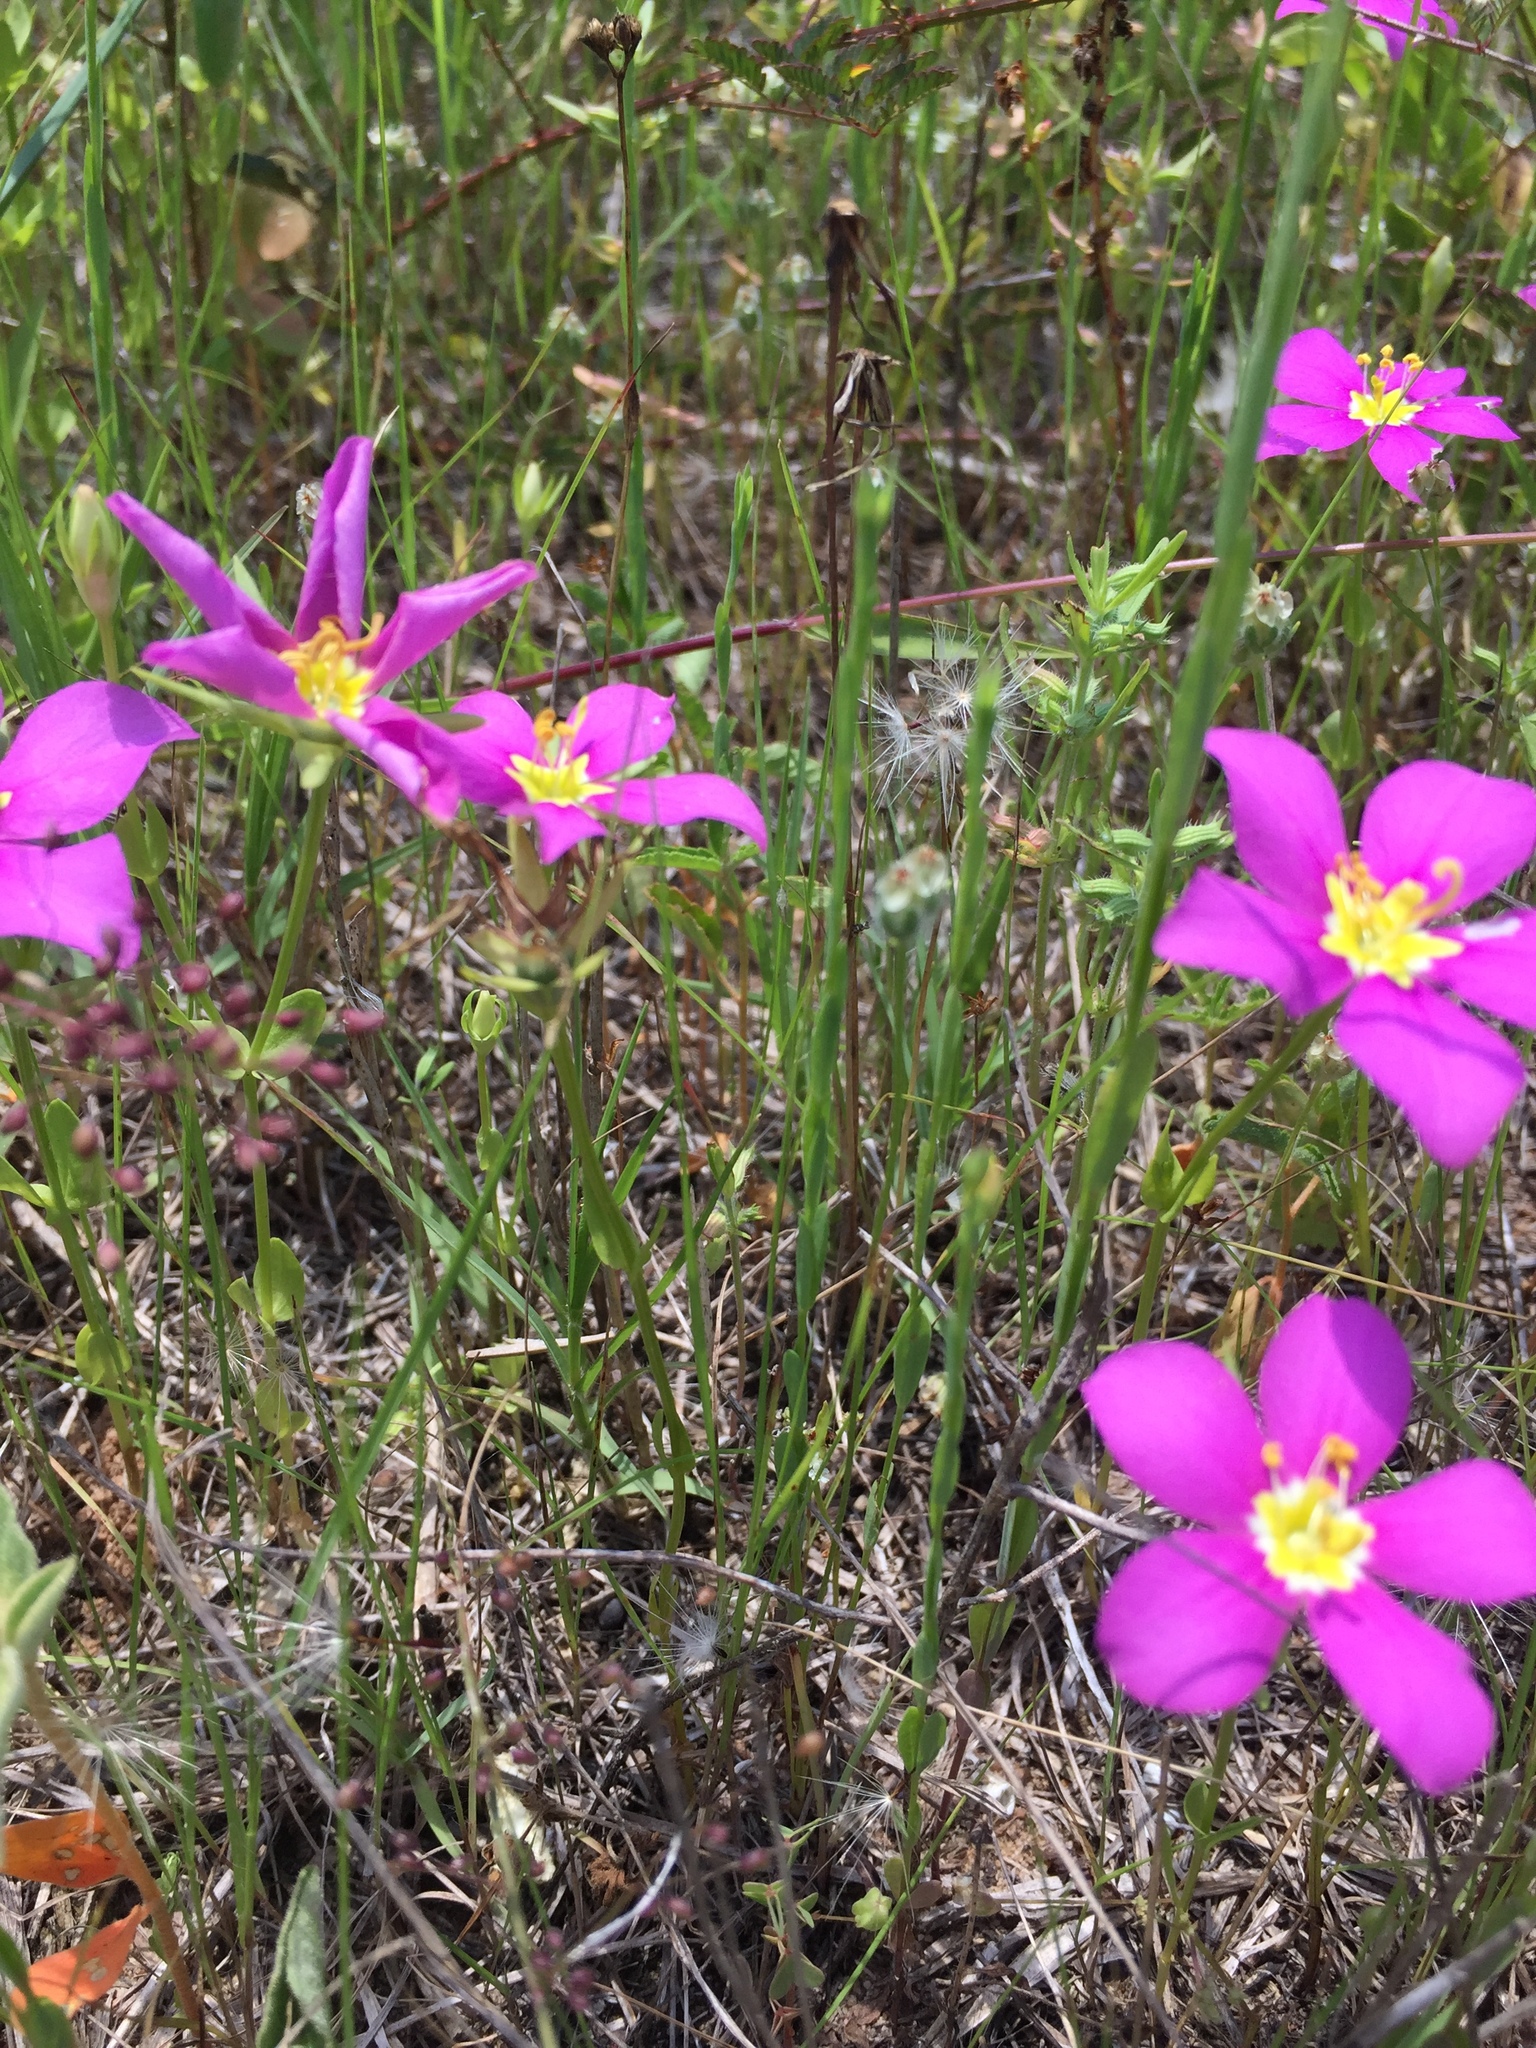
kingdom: Plantae
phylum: Tracheophyta
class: Magnoliopsida
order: Gentianales
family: Gentianaceae
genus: Sabatia
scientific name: Sabatia campestris
